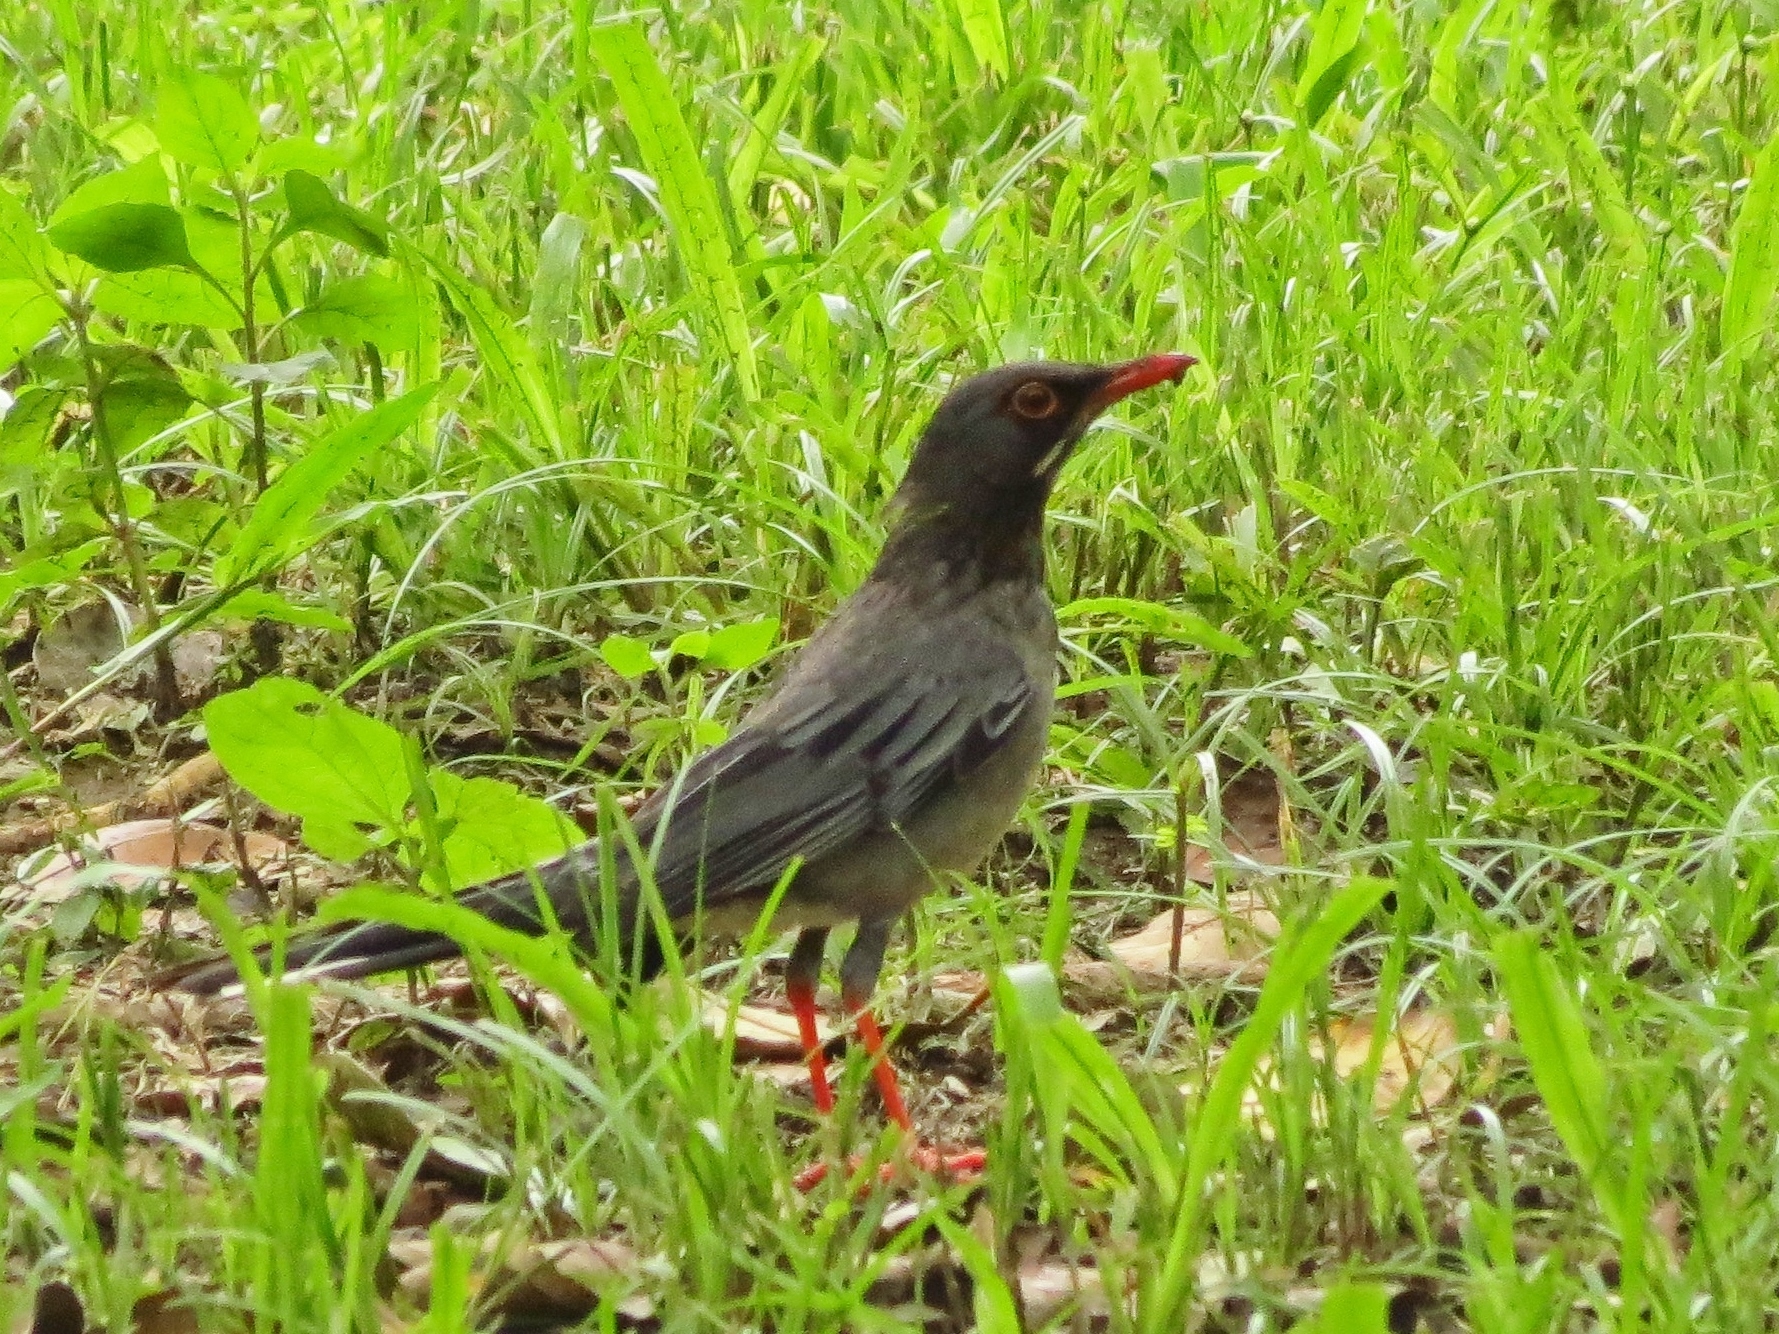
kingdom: Animalia
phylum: Chordata
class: Aves
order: Passeriformes
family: Turdidae
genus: Turdus
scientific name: Turdus plumbeus
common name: Red-legged thrush
